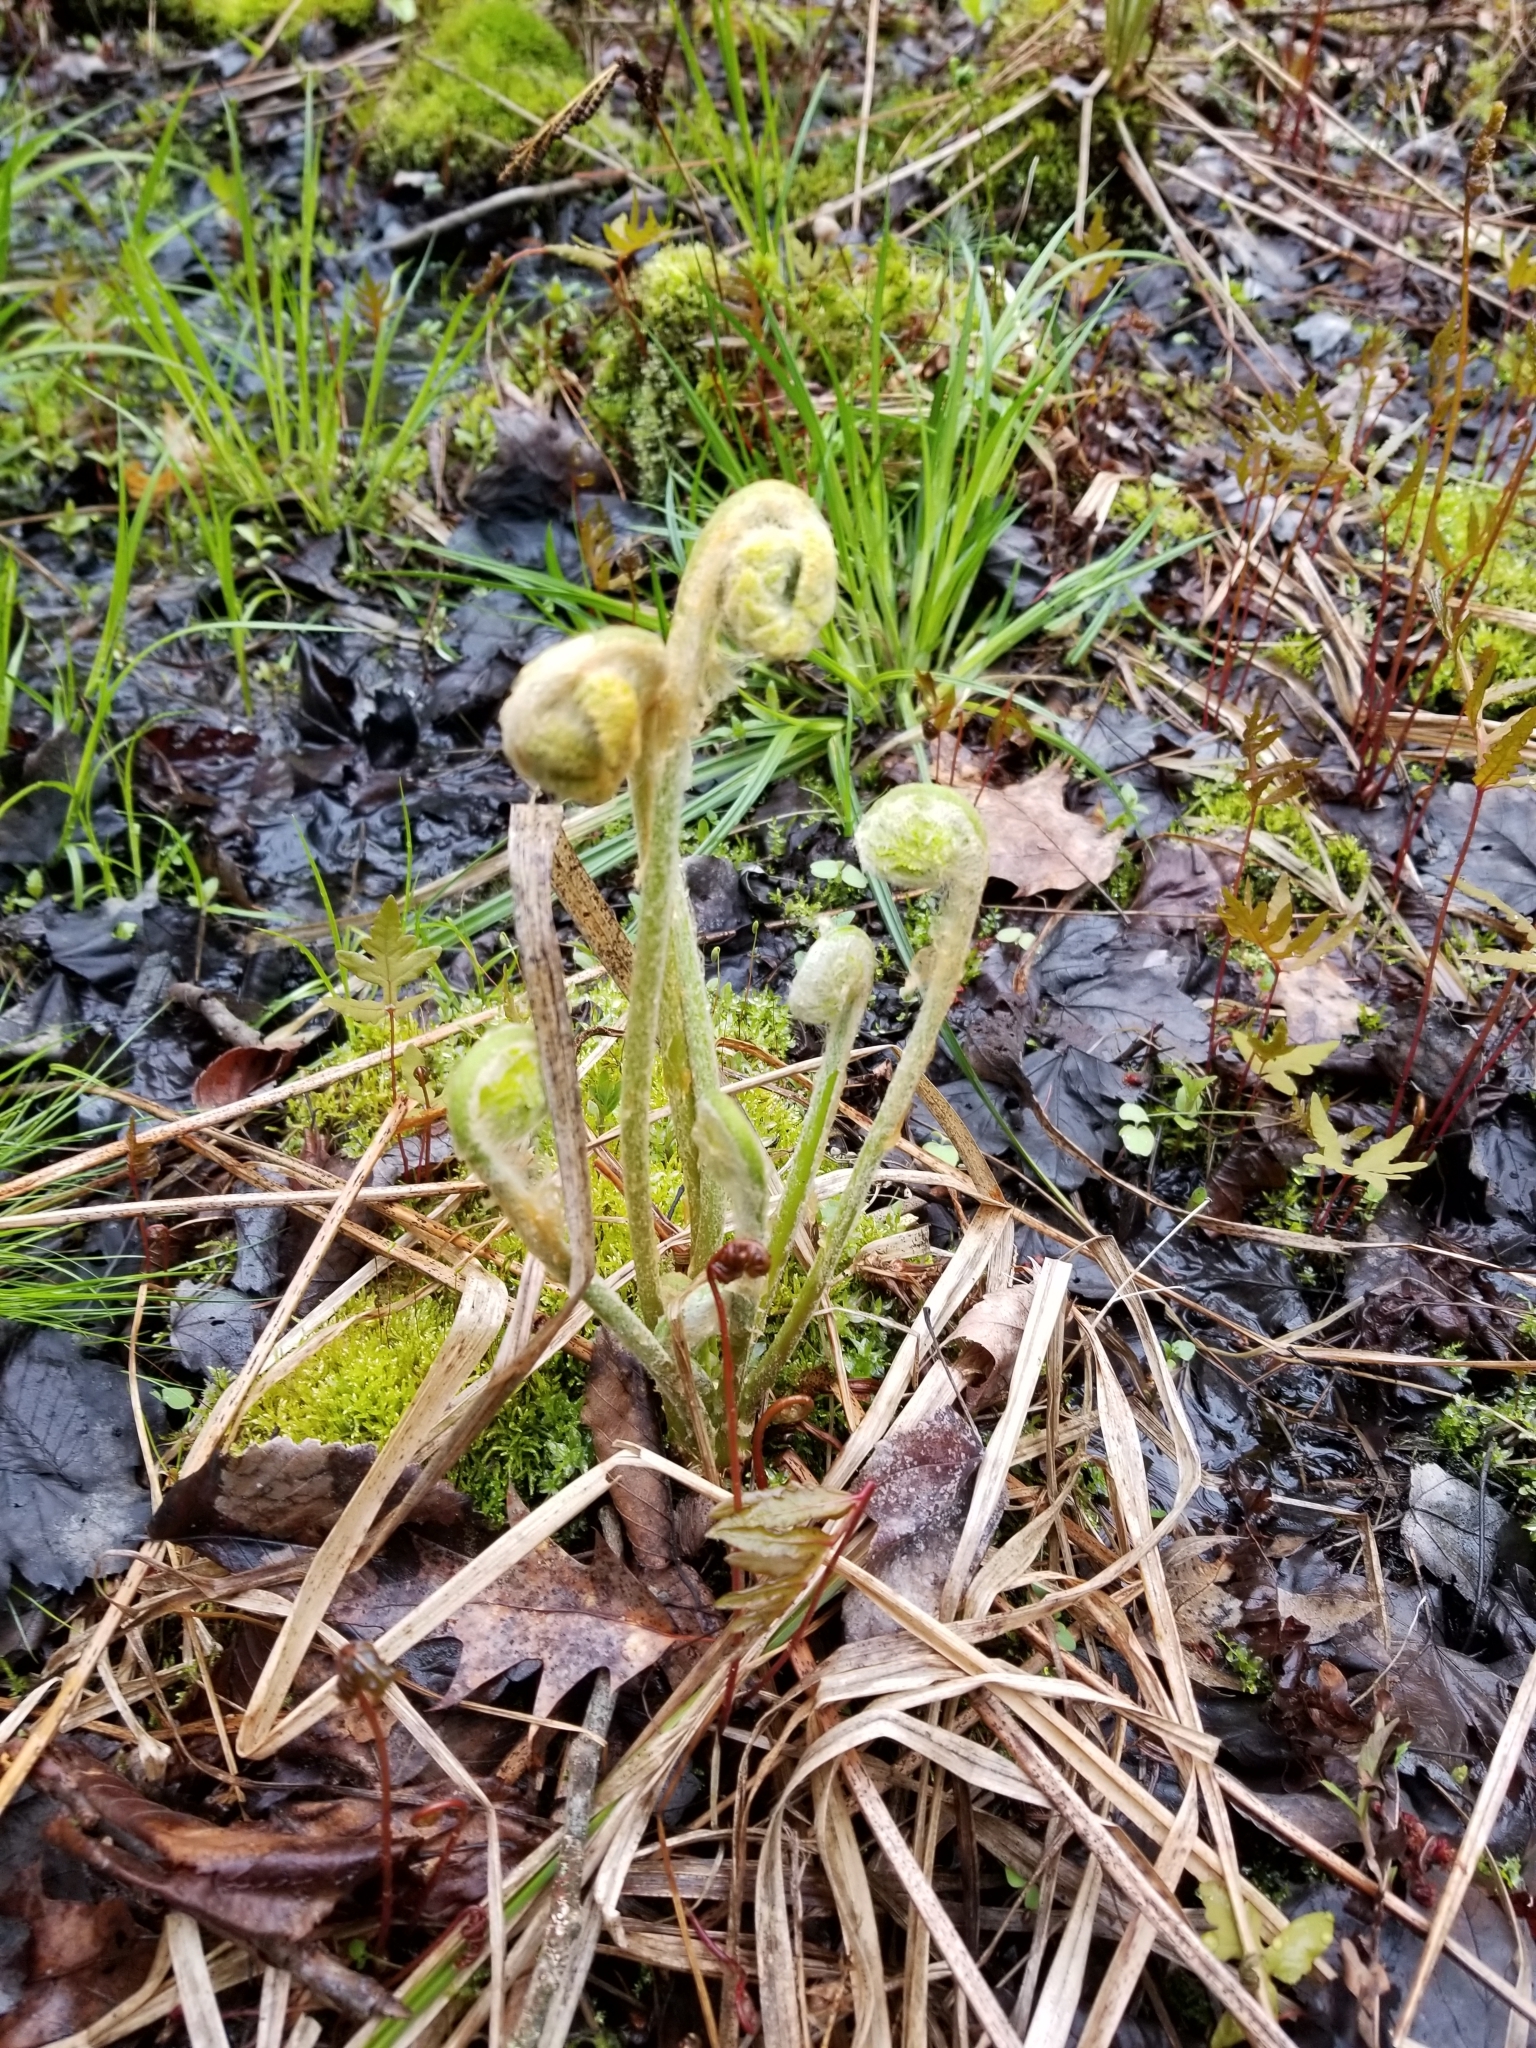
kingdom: Plantae
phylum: Tracheophyta
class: Polypodiopsida
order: Osmundales
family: Osmundaceae
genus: Osmundastrum
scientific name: Osmundastrum cinnamomeum
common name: Cinnamon fern
